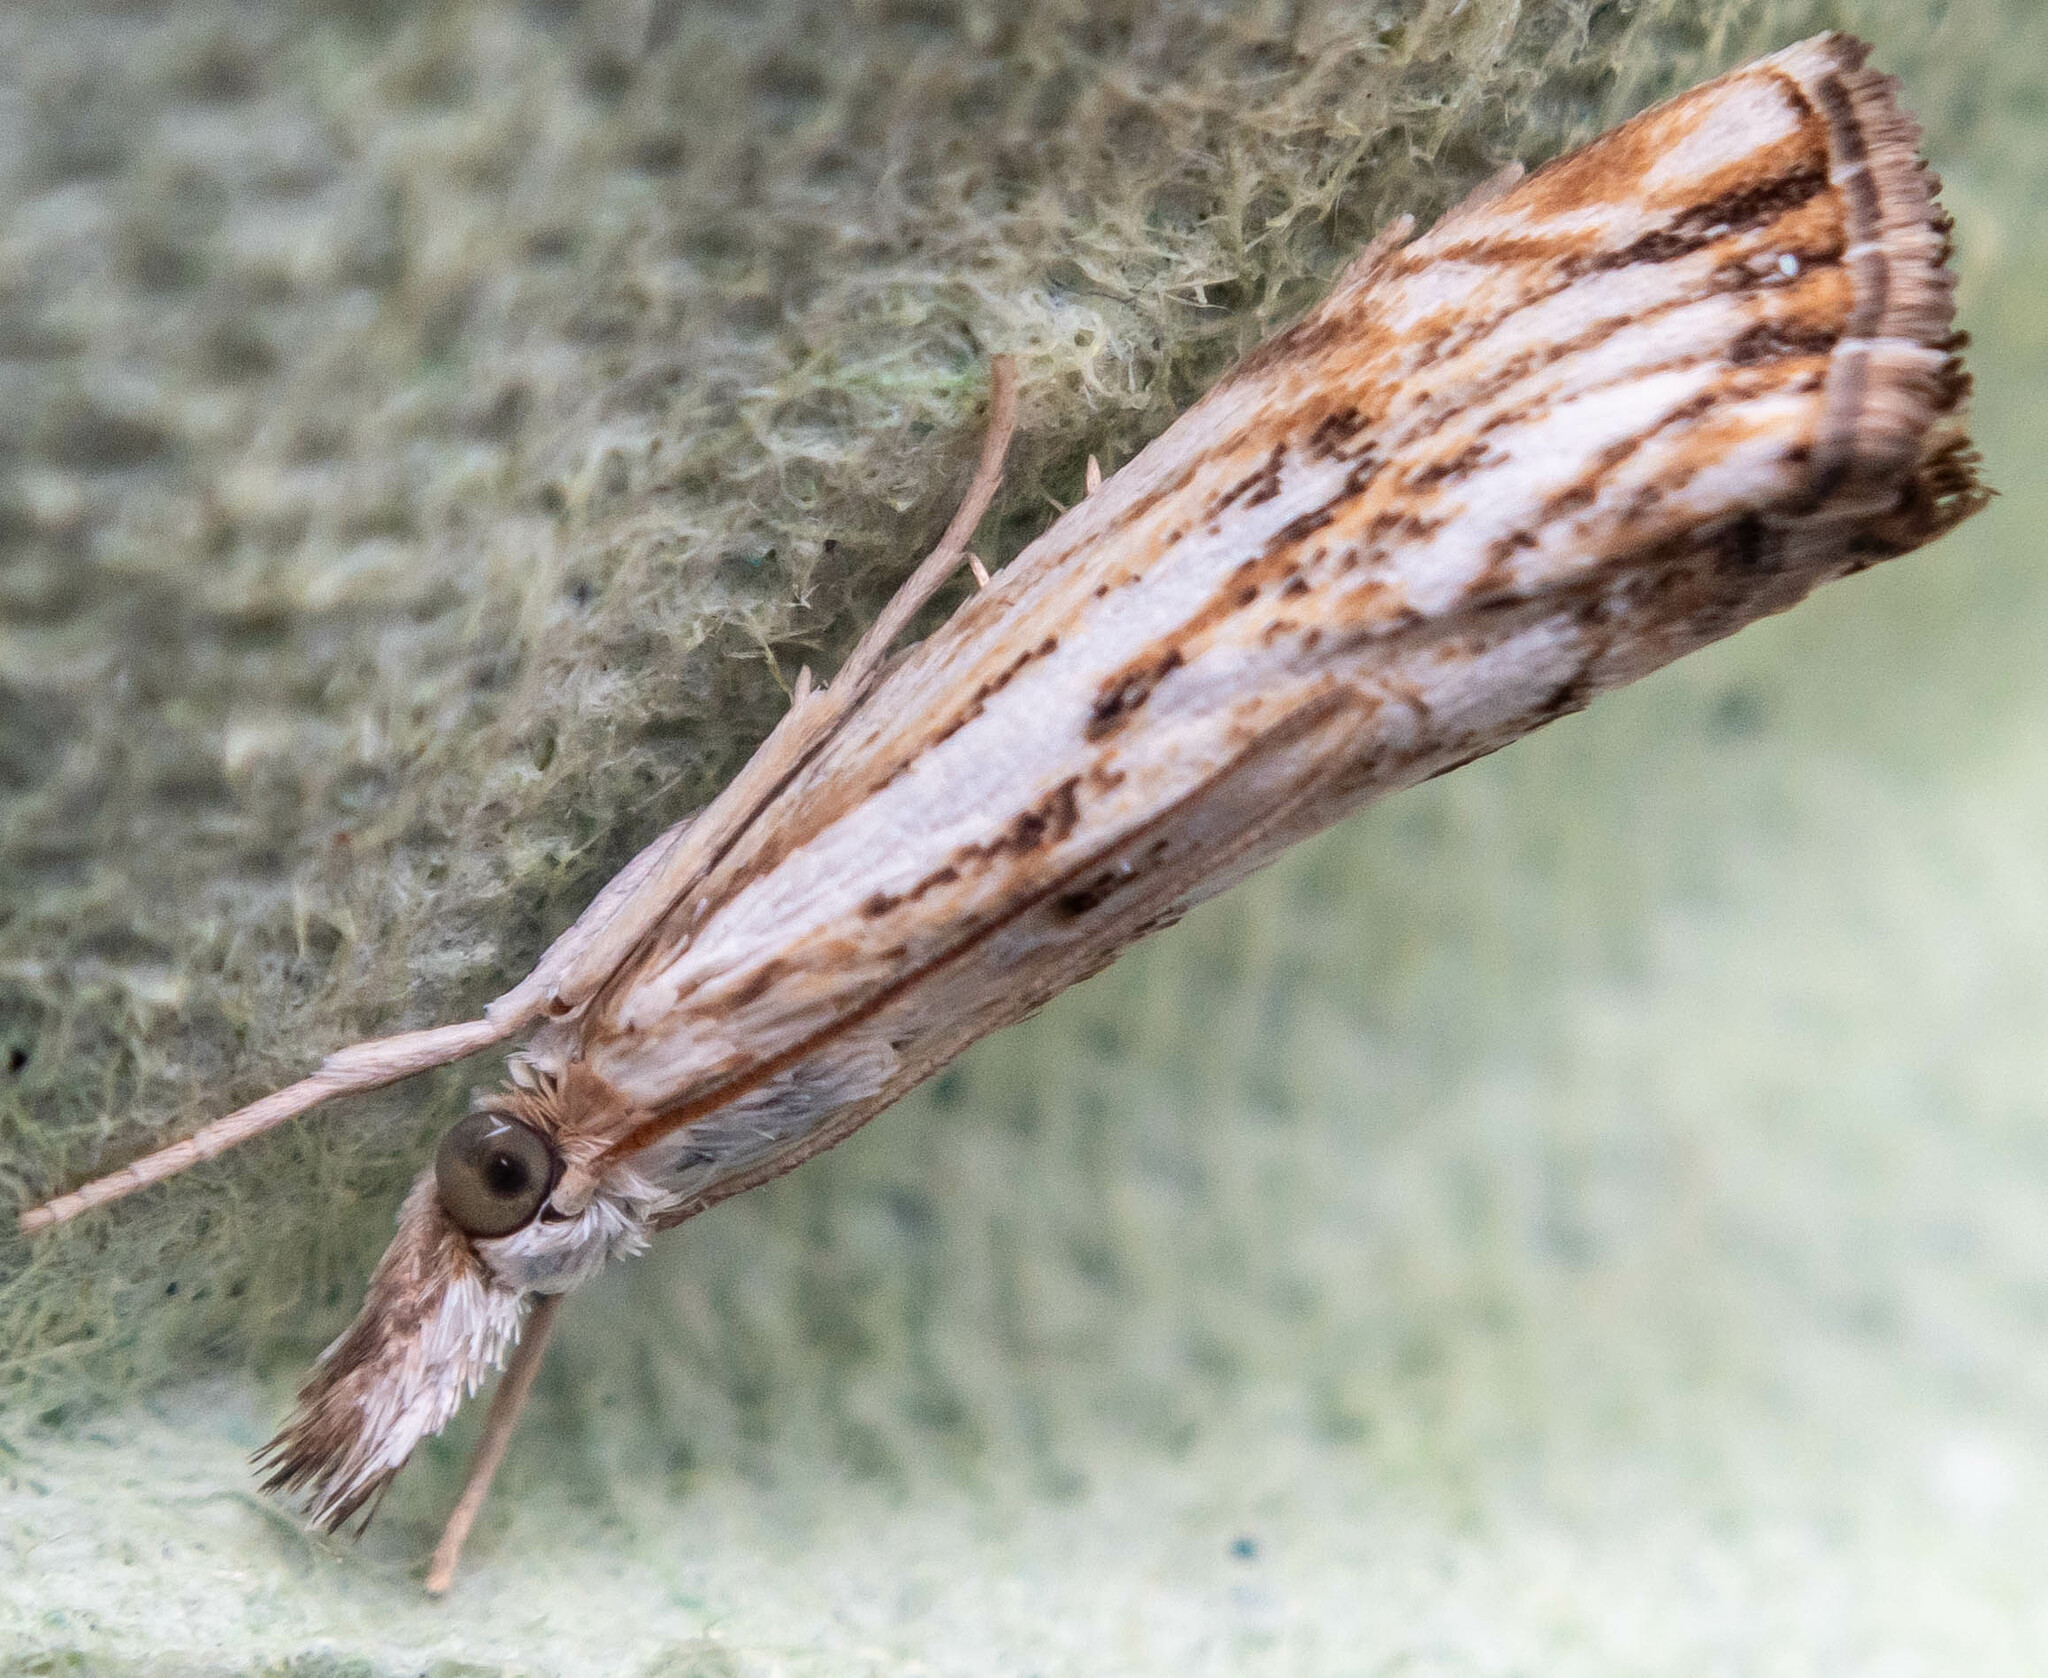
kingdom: Animalia
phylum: Arthropoda
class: Insecta
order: Lepidoptera
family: Crambidae
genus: Catoptria
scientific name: Catoptria falsella
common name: Chequered grass-veneer
